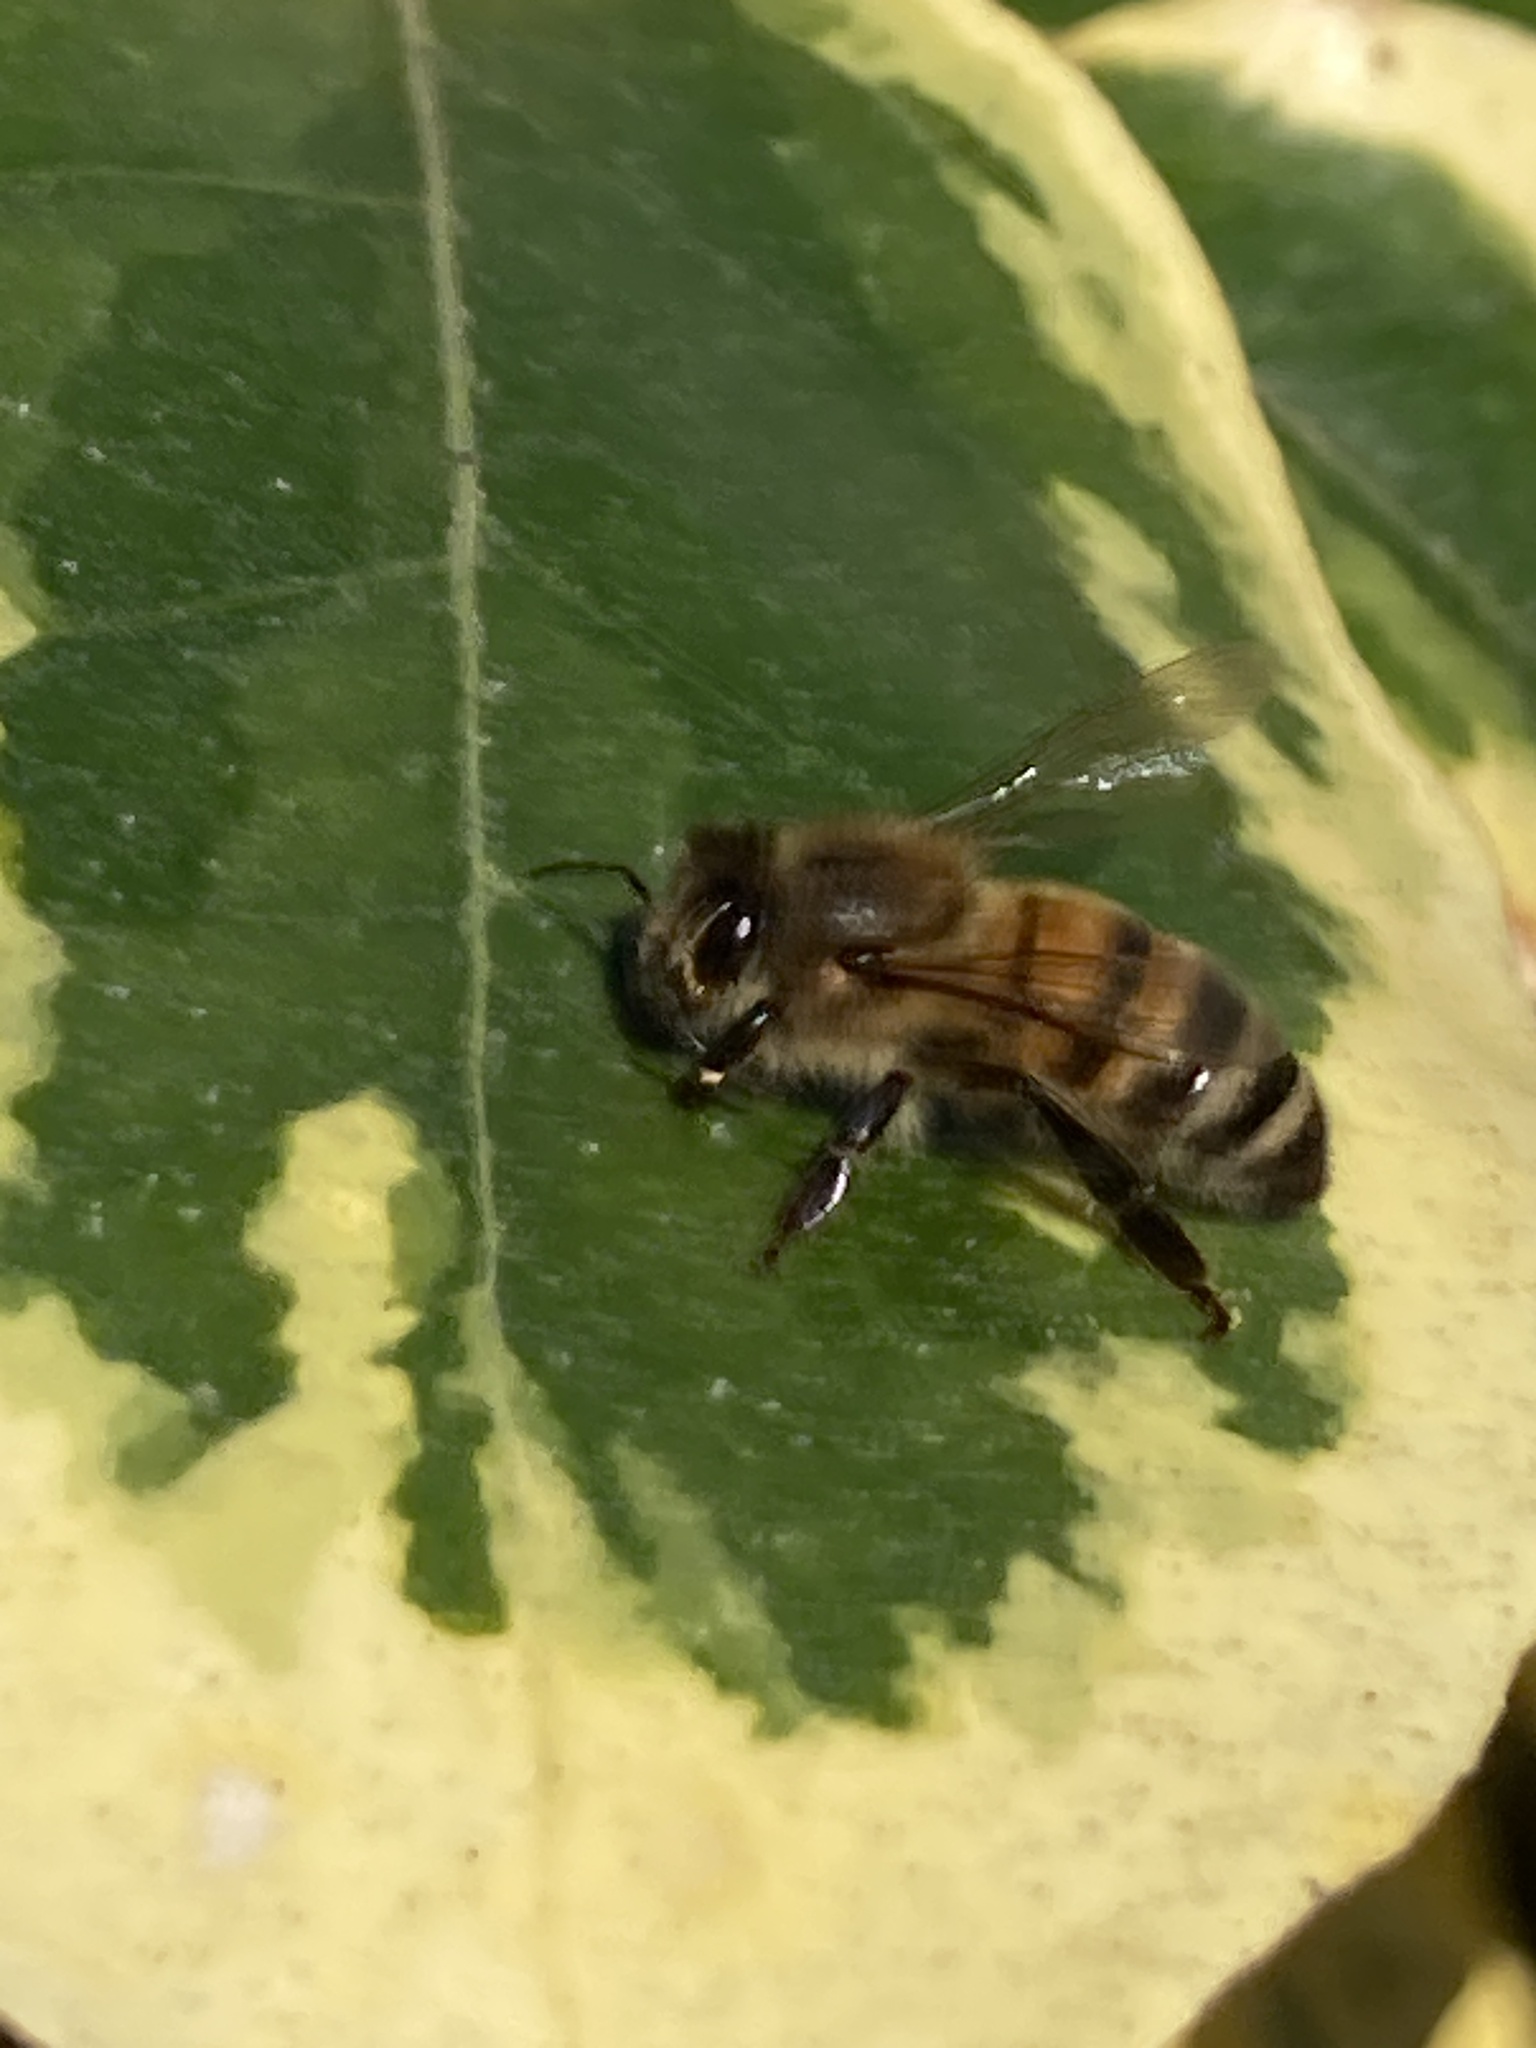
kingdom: Animalia
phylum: Arthropoda
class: Insecta
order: Hymenoptera
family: Apidae
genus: Apis
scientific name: Apis mellifera
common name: Honey bee
